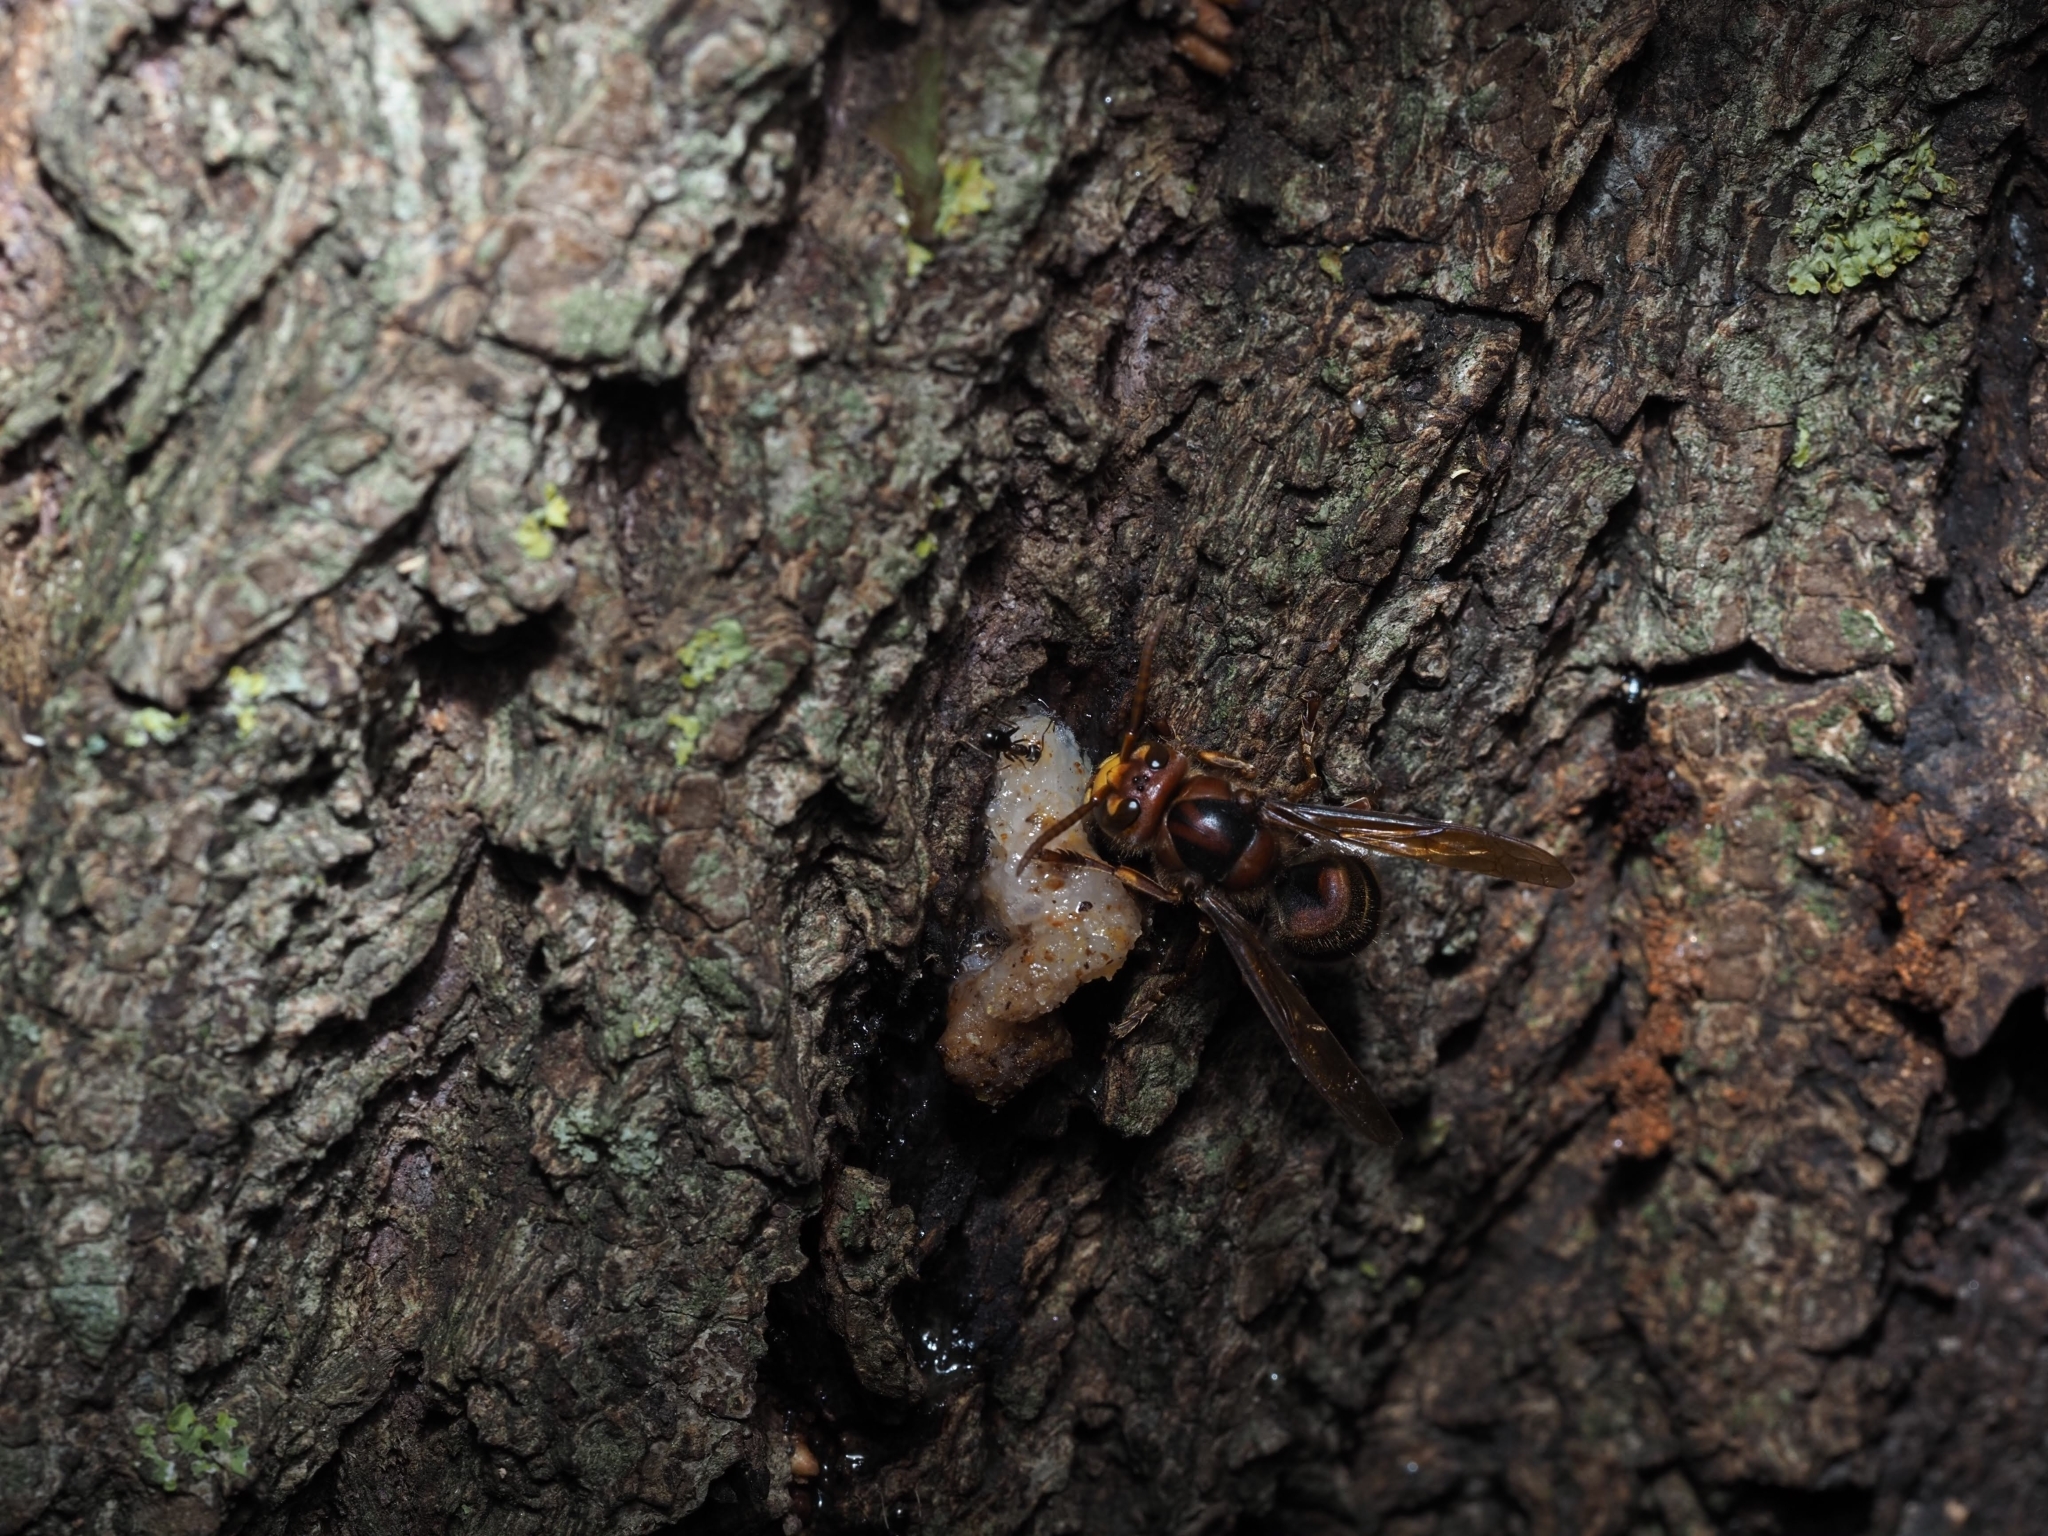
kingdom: Animalia
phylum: Arthropoda
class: Insecta
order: Hymenoptera
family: Vespidae
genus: Vespa
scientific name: Vespa crabro
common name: Hornet
